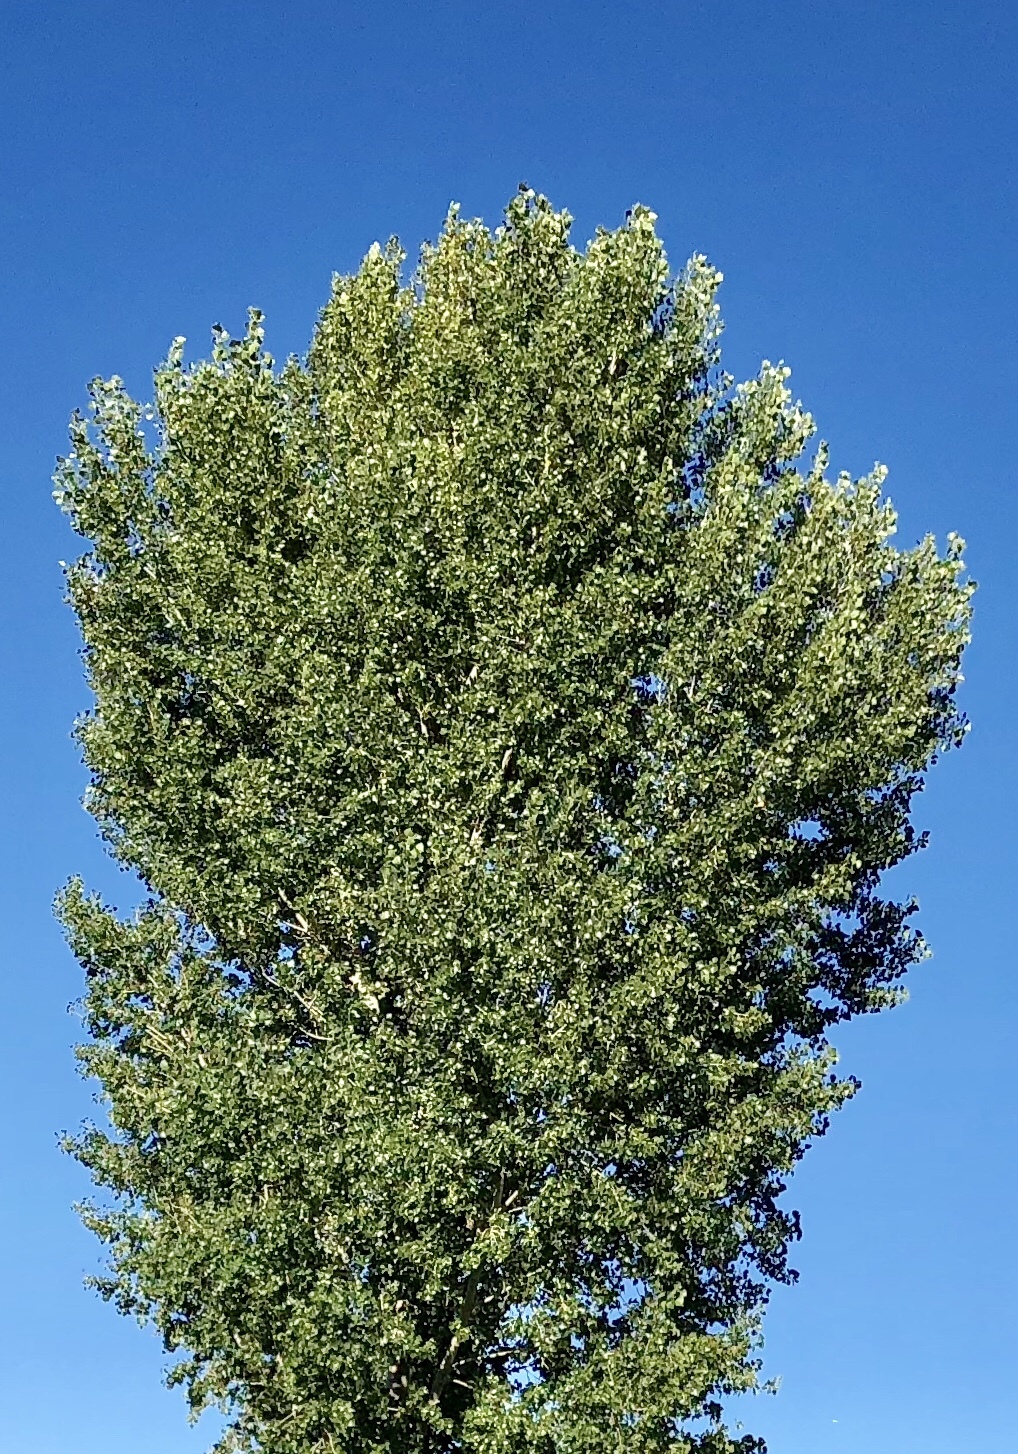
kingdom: Plantae
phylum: Tracheophyta
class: Magnoliopsida
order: Malpighiales
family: Salicaceae
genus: Populus
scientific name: Populus fremontii
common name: Fremont's cottonwood
